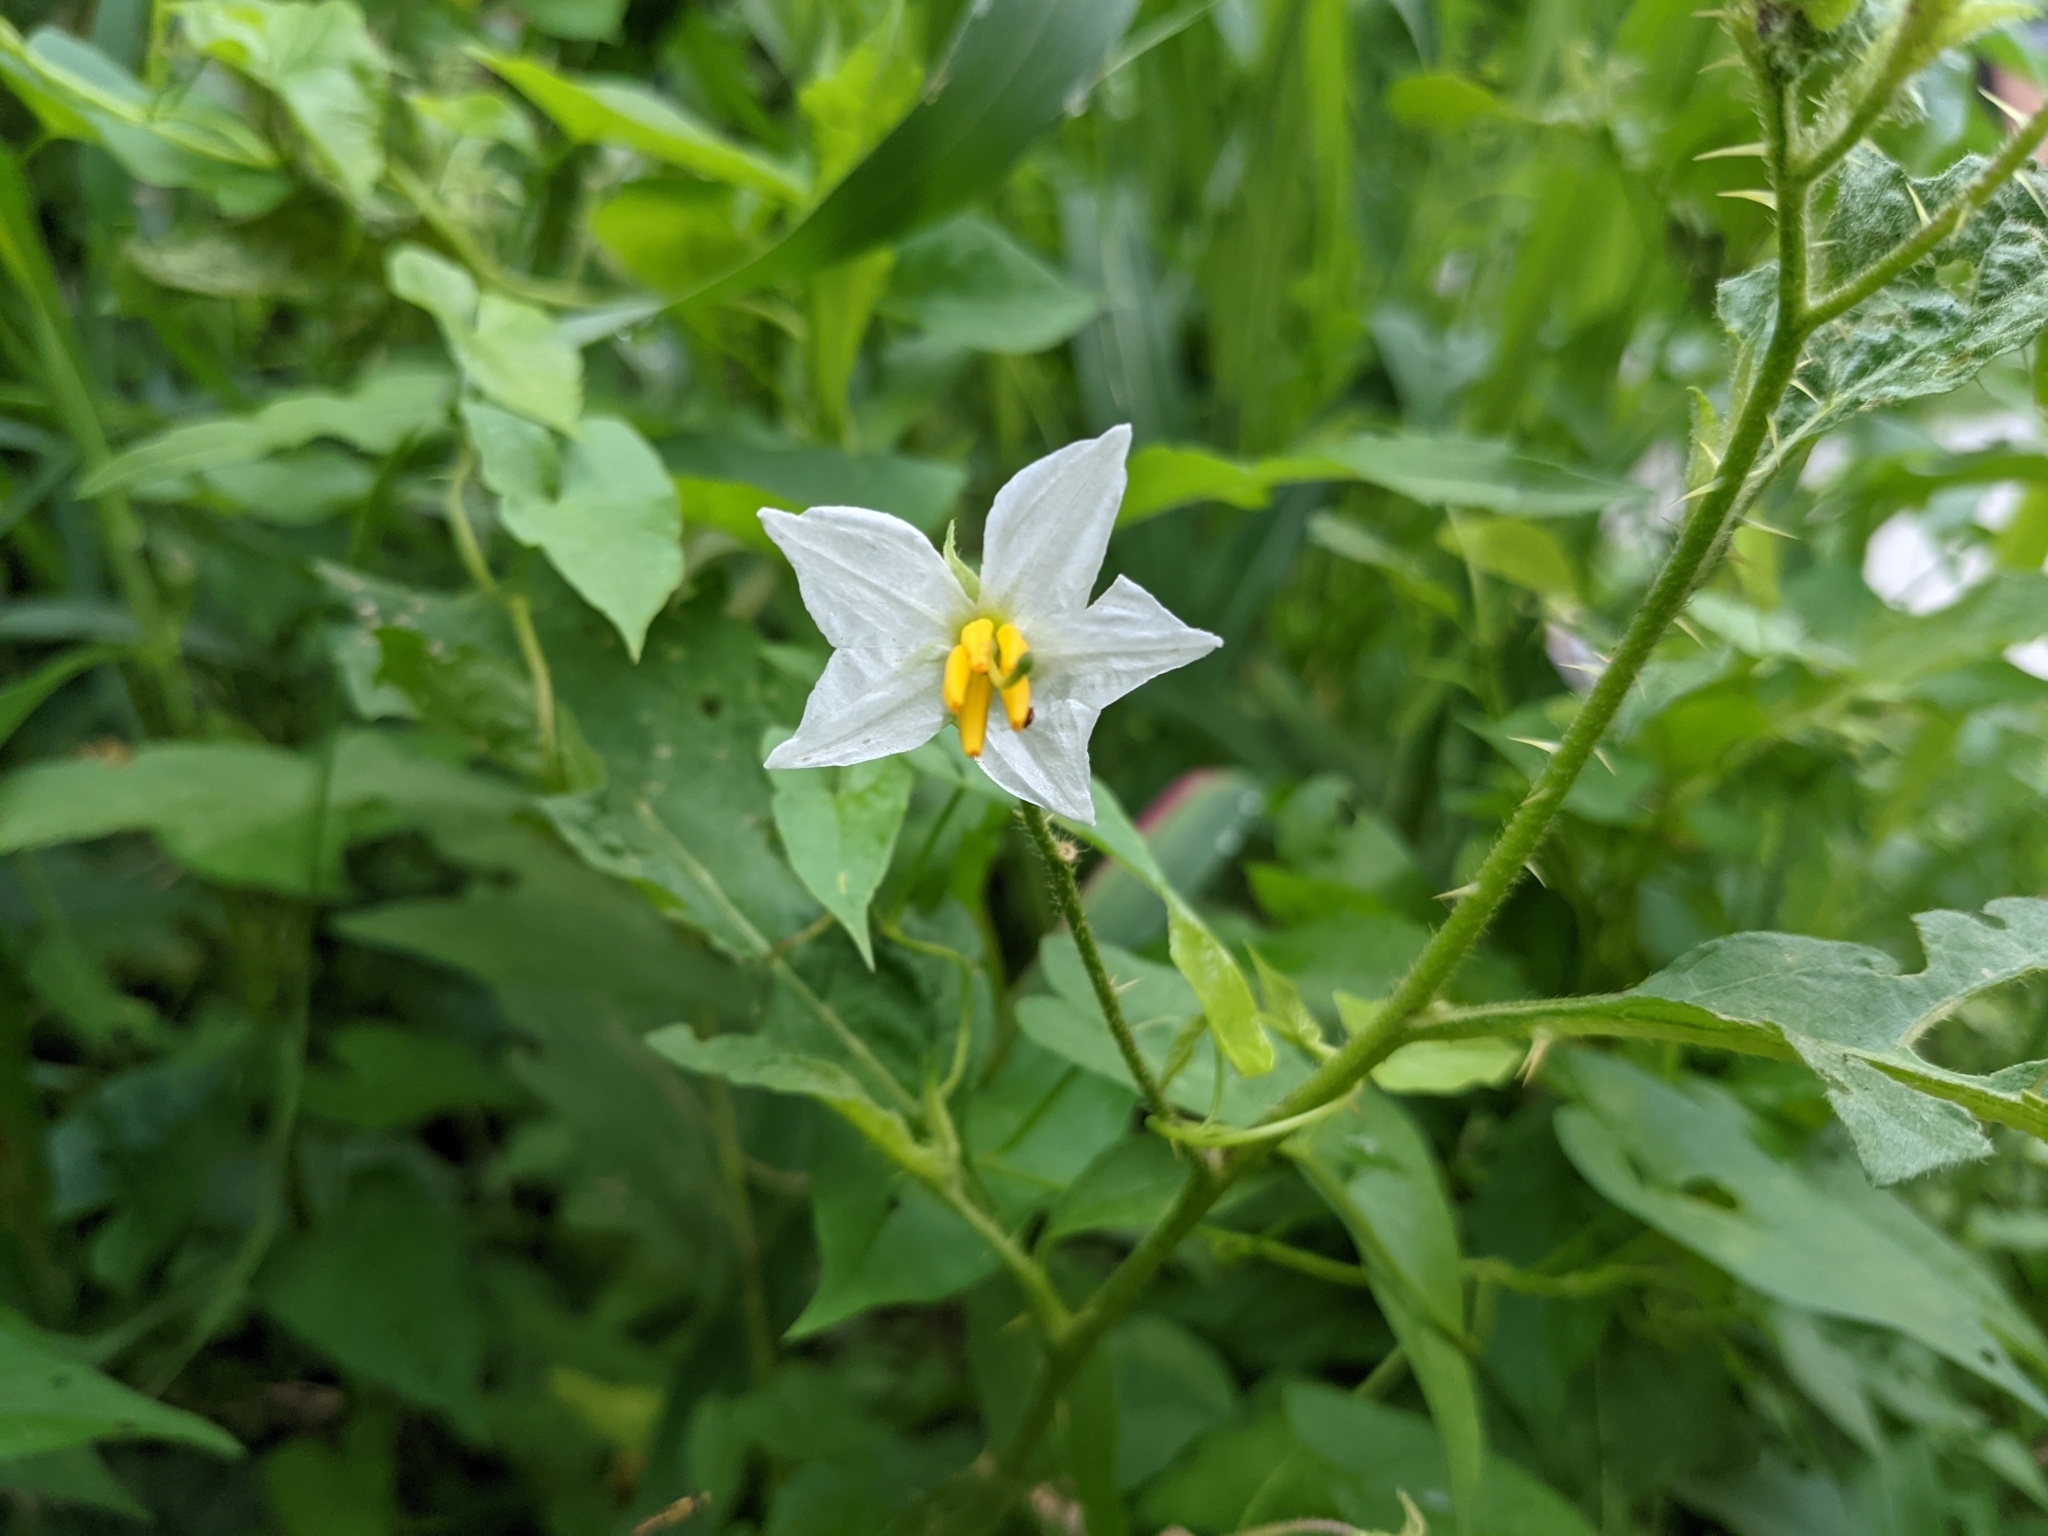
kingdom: Plantae
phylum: Tracheophyta
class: Magnoliopsida
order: Solanales
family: Solanaceae
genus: Solanum
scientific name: Solanum carolinense
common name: Horse-nettle
